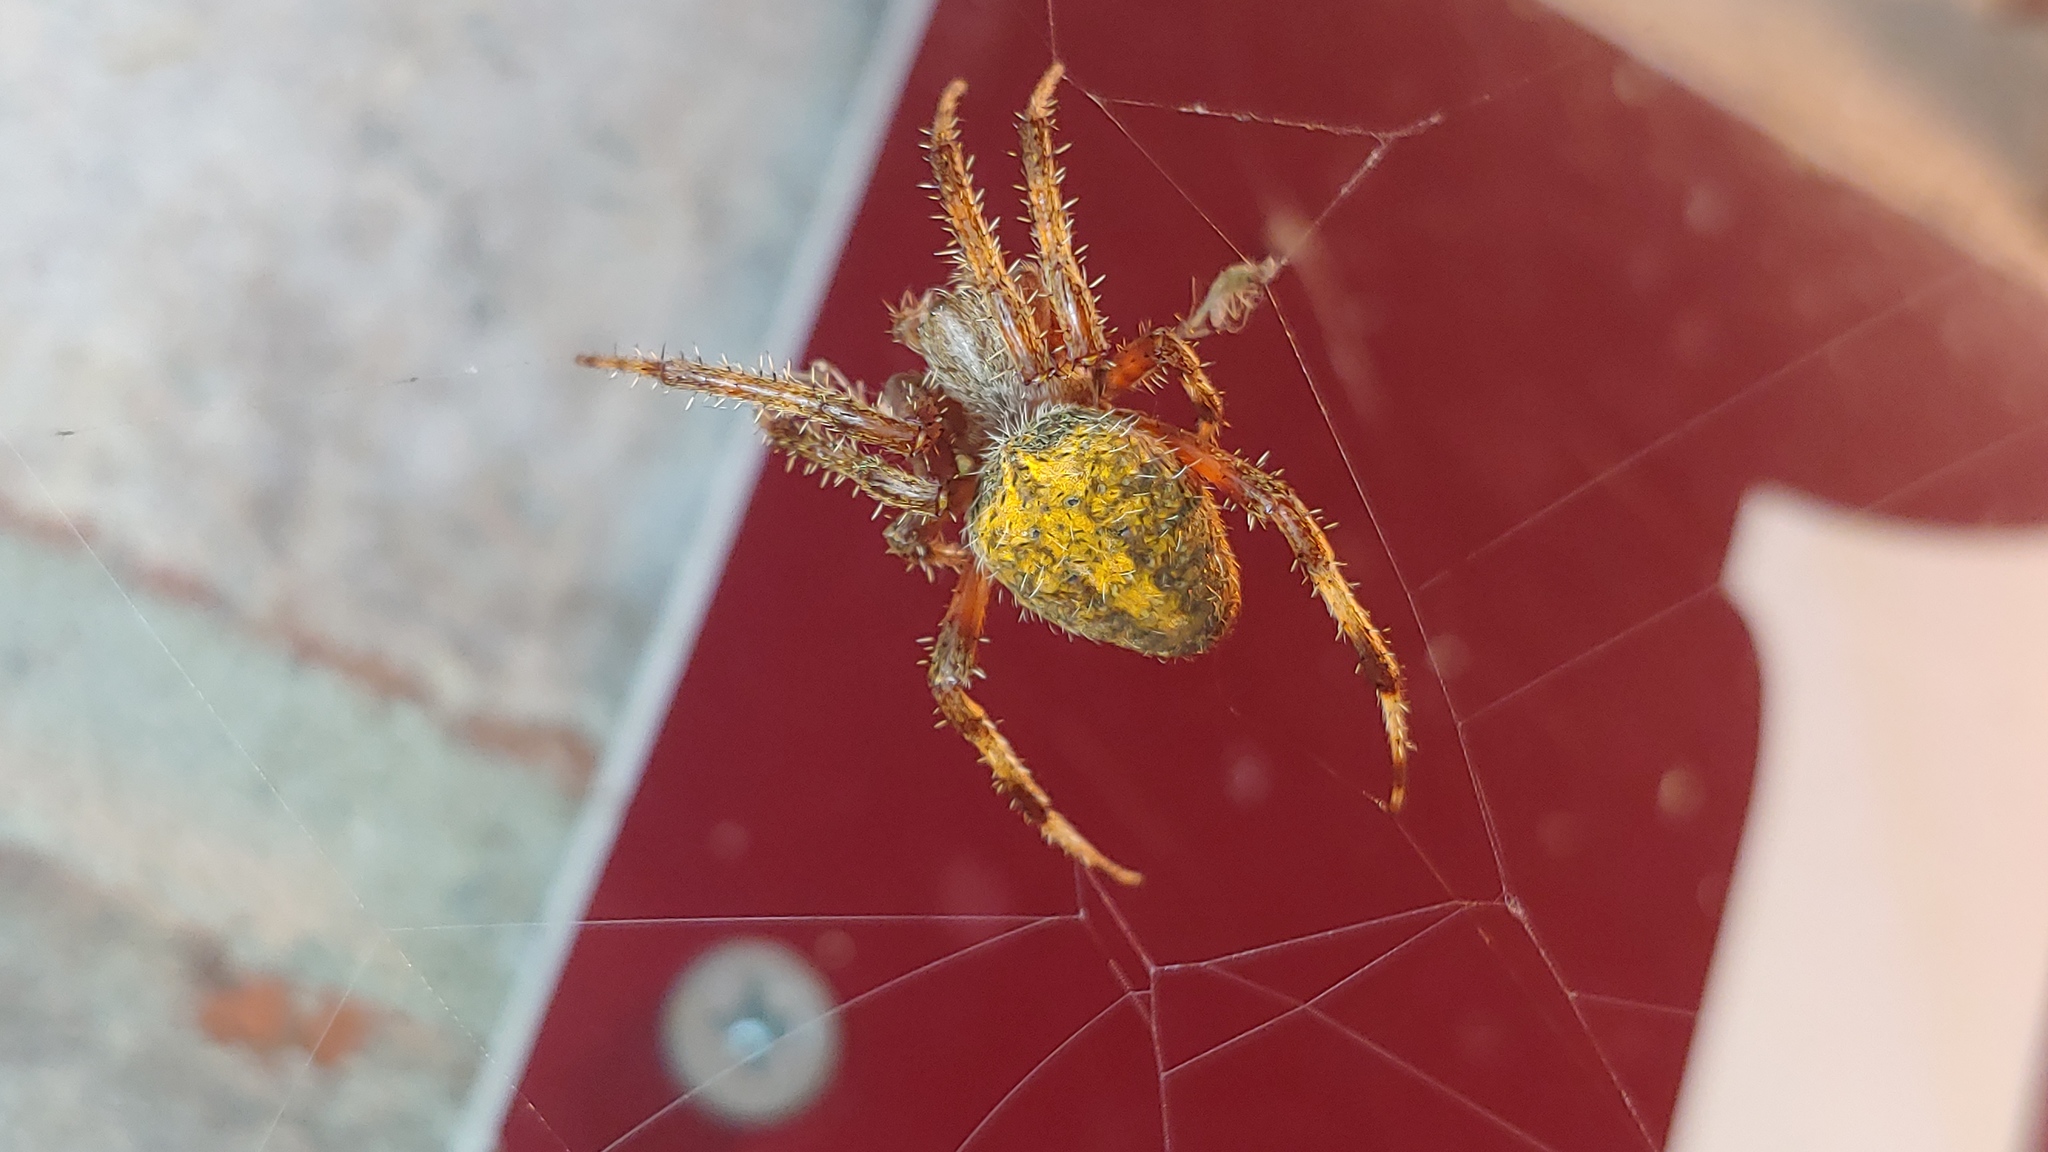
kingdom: Animalia
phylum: Arthropoda
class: Arachnida
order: Araneae
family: Araneidae
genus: Neoscona
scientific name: Neoscona crucifera
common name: Spotted orbweaver
